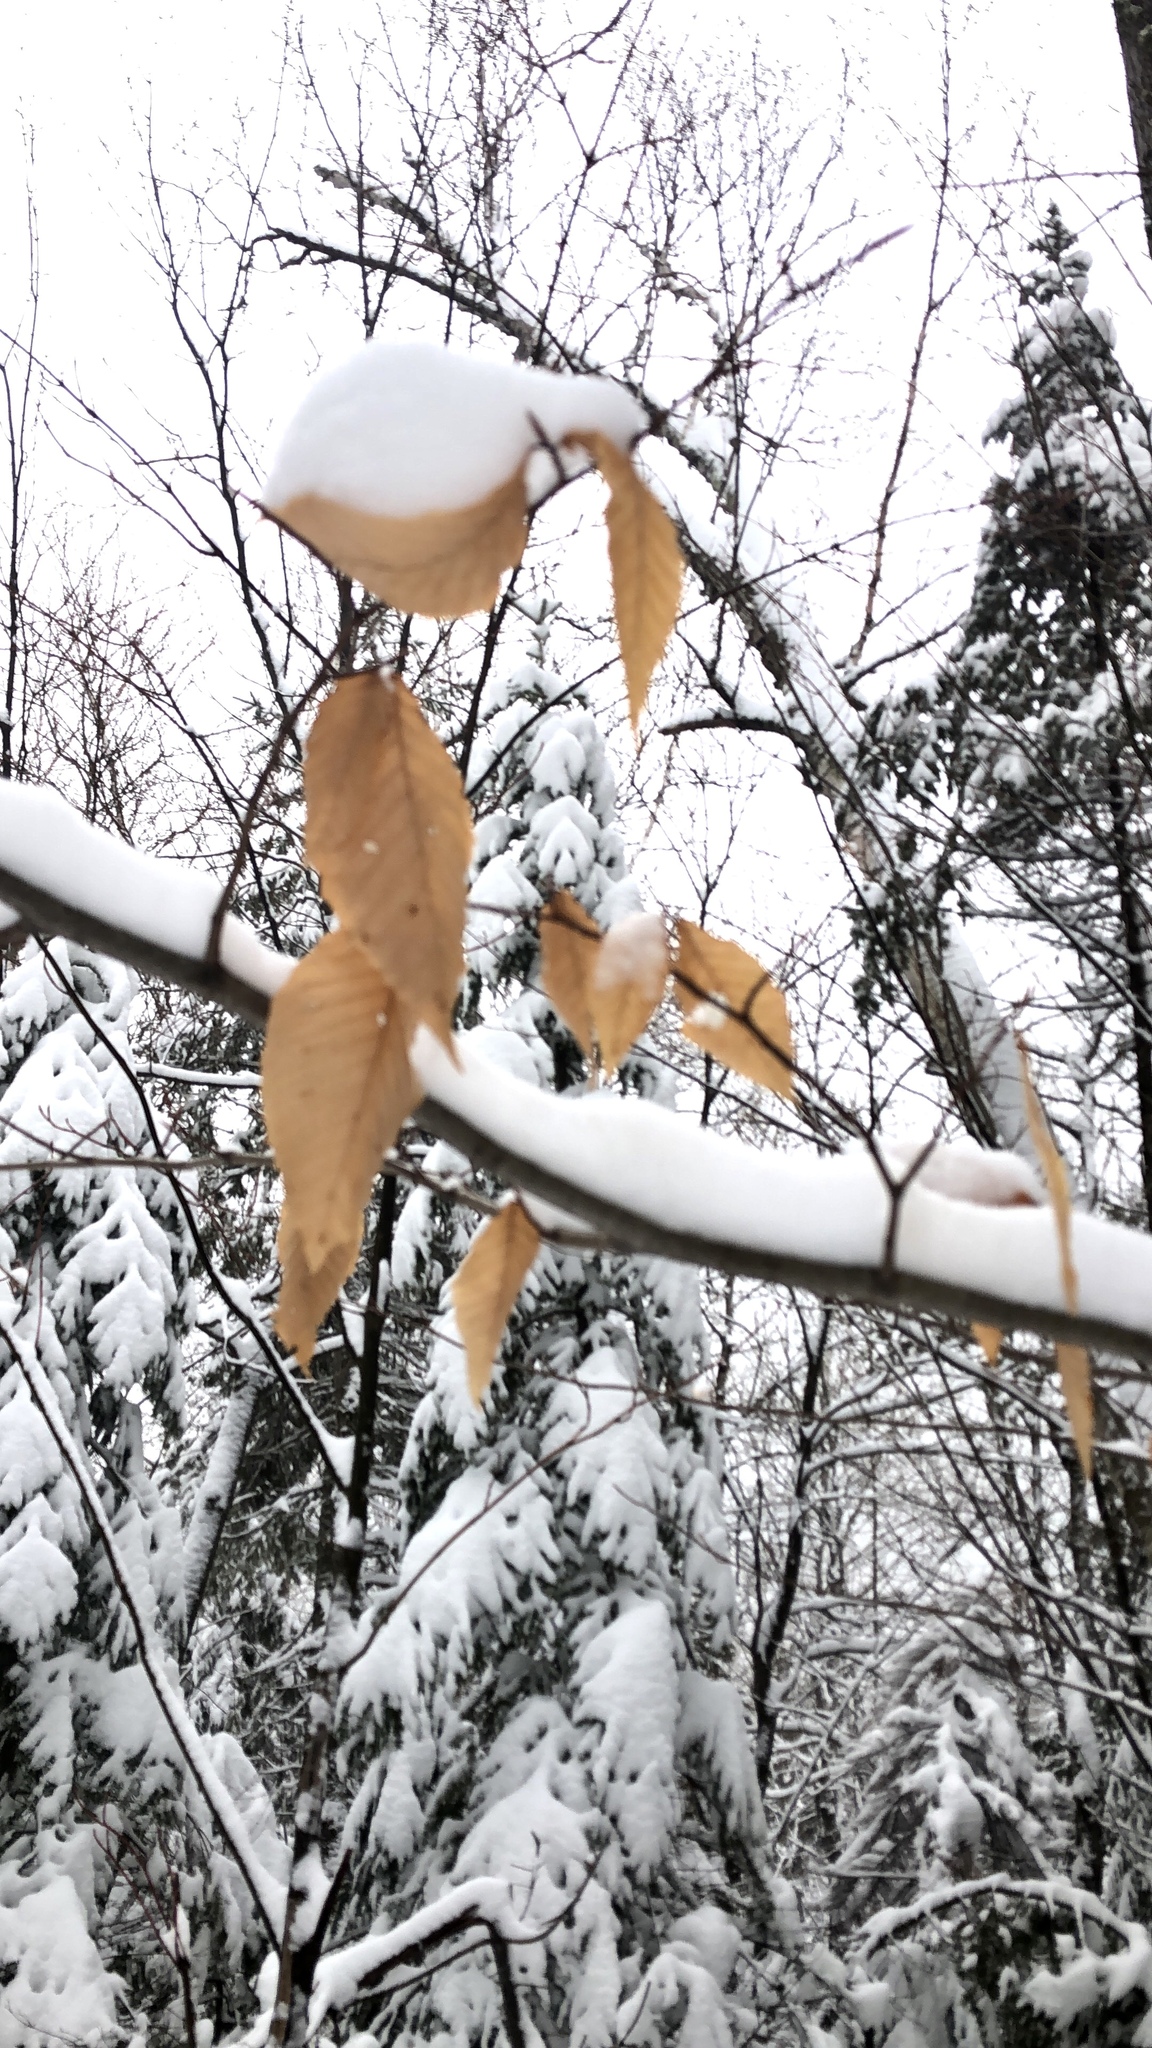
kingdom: Plantae
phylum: Tracheophyta
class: Magnoliopsida
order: Fagales
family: Fagaceae
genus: Fagus
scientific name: Fagus grandifolia
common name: American beech
